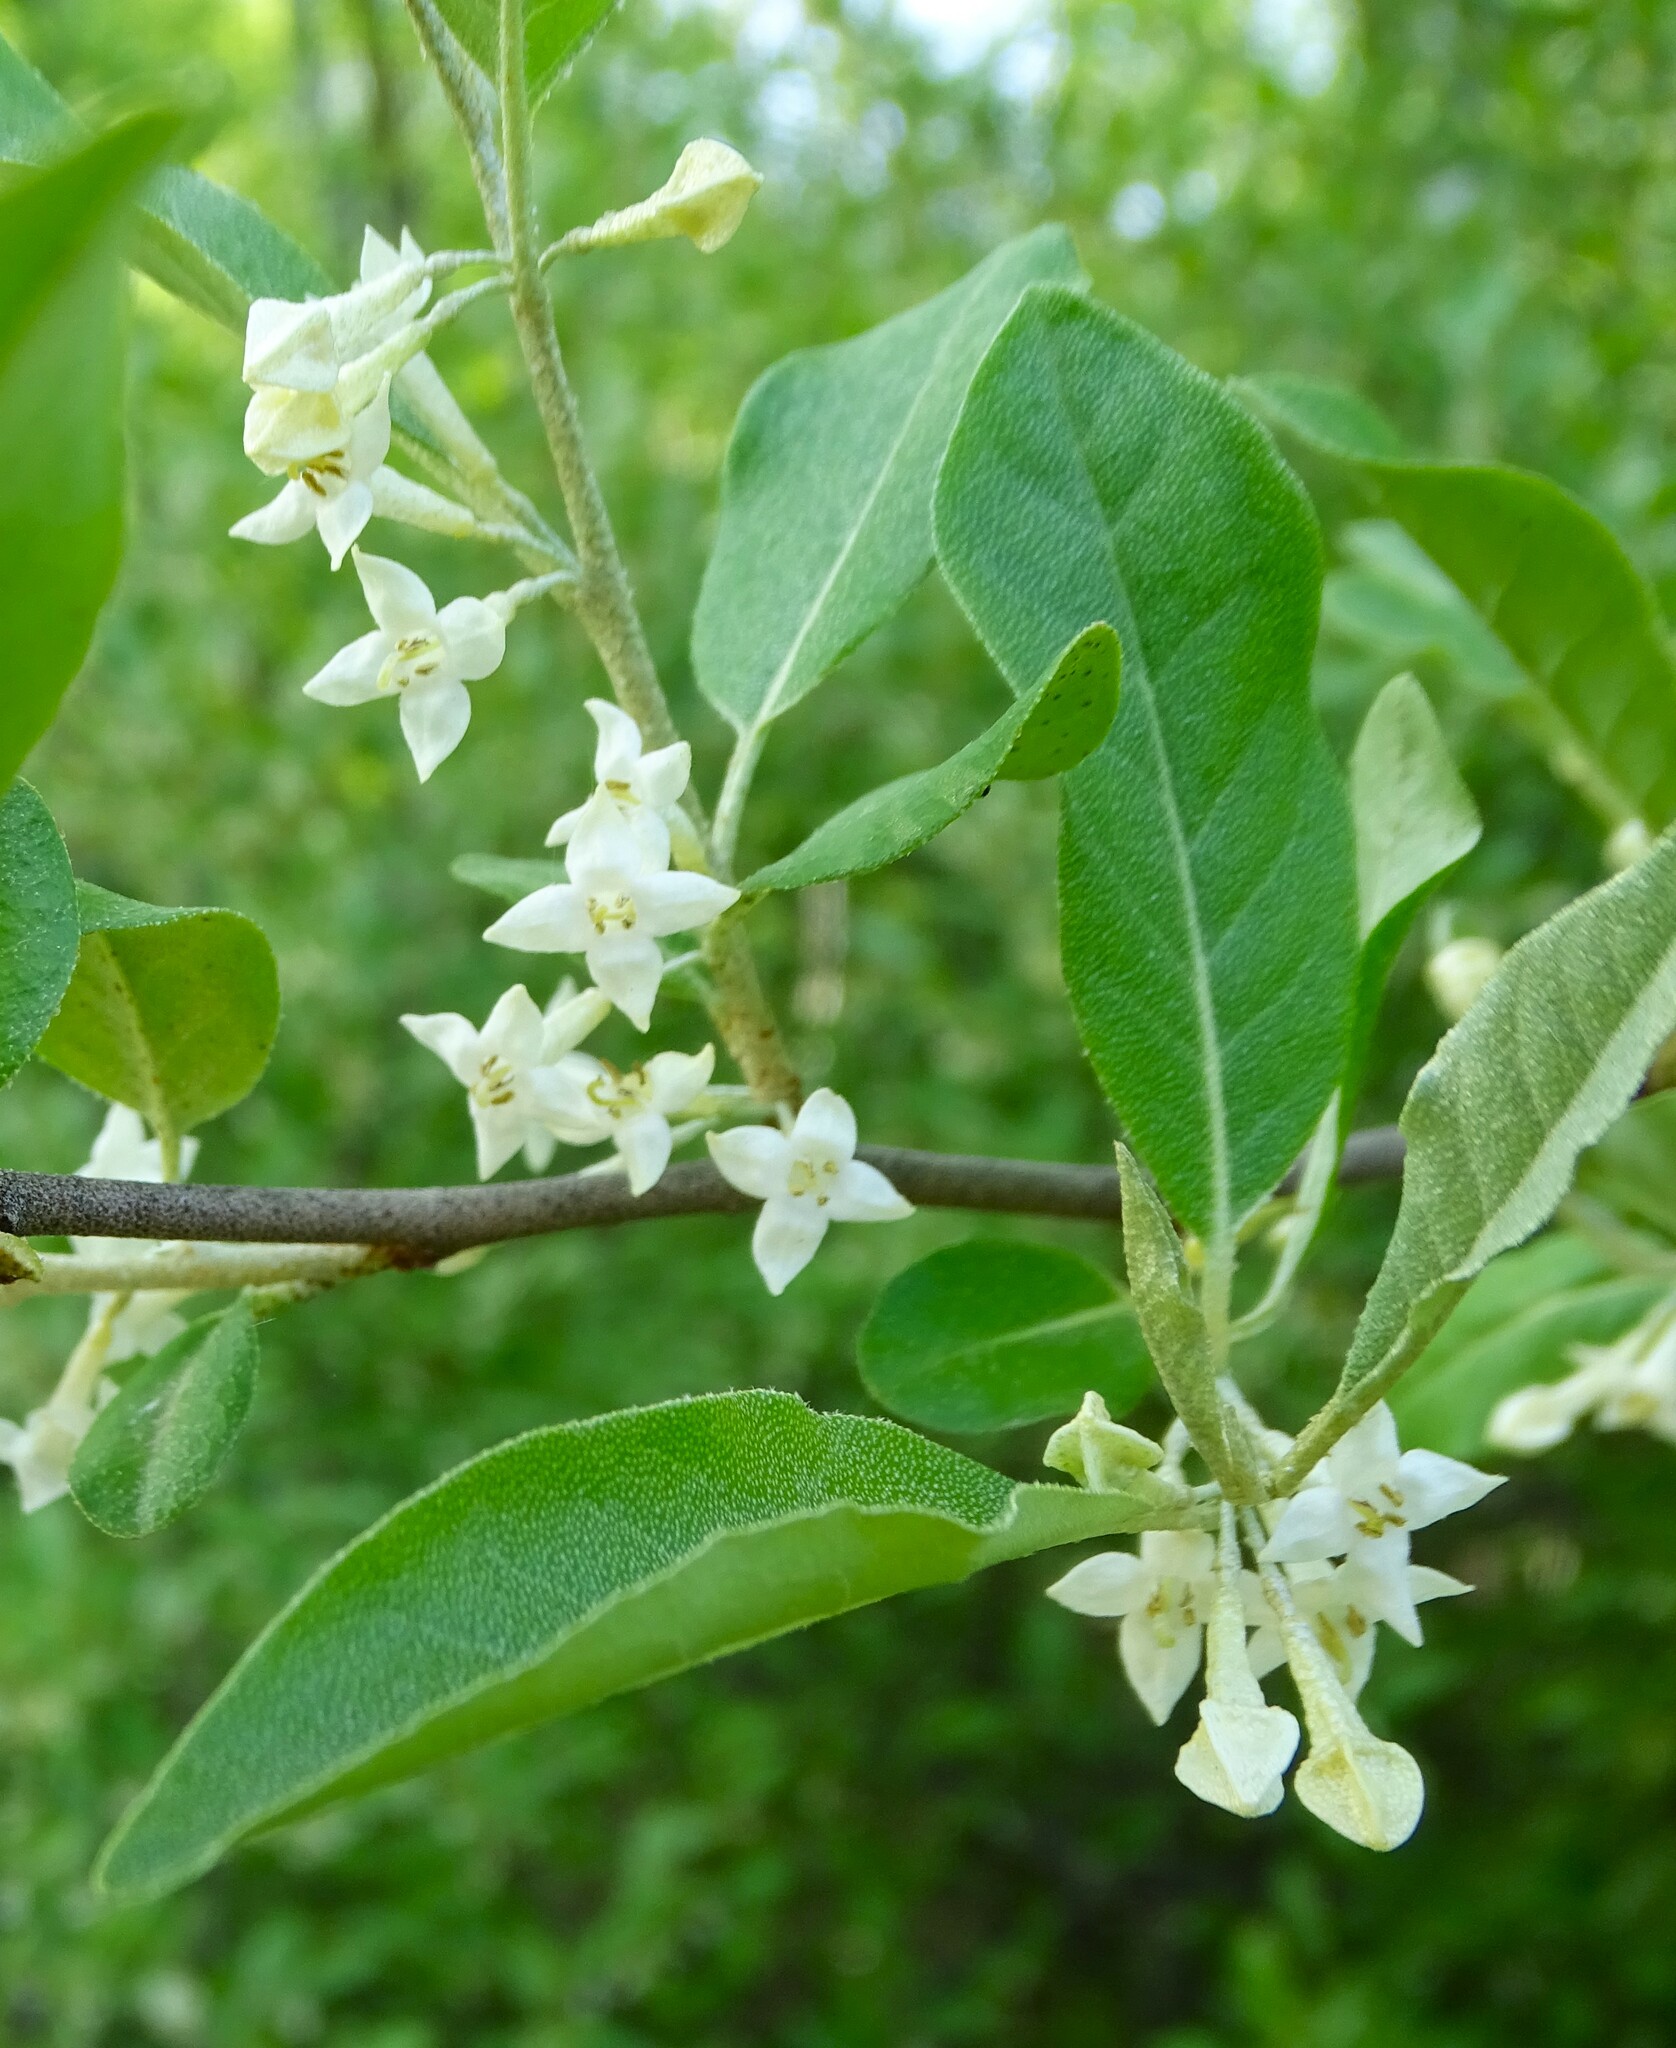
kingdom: Plantae
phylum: Tracheophyta
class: Magnoliopsida
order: Rosales
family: Elaeagnaceae
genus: Elaeagnus
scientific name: Elaeagnus umbellata
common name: Autumn olive
